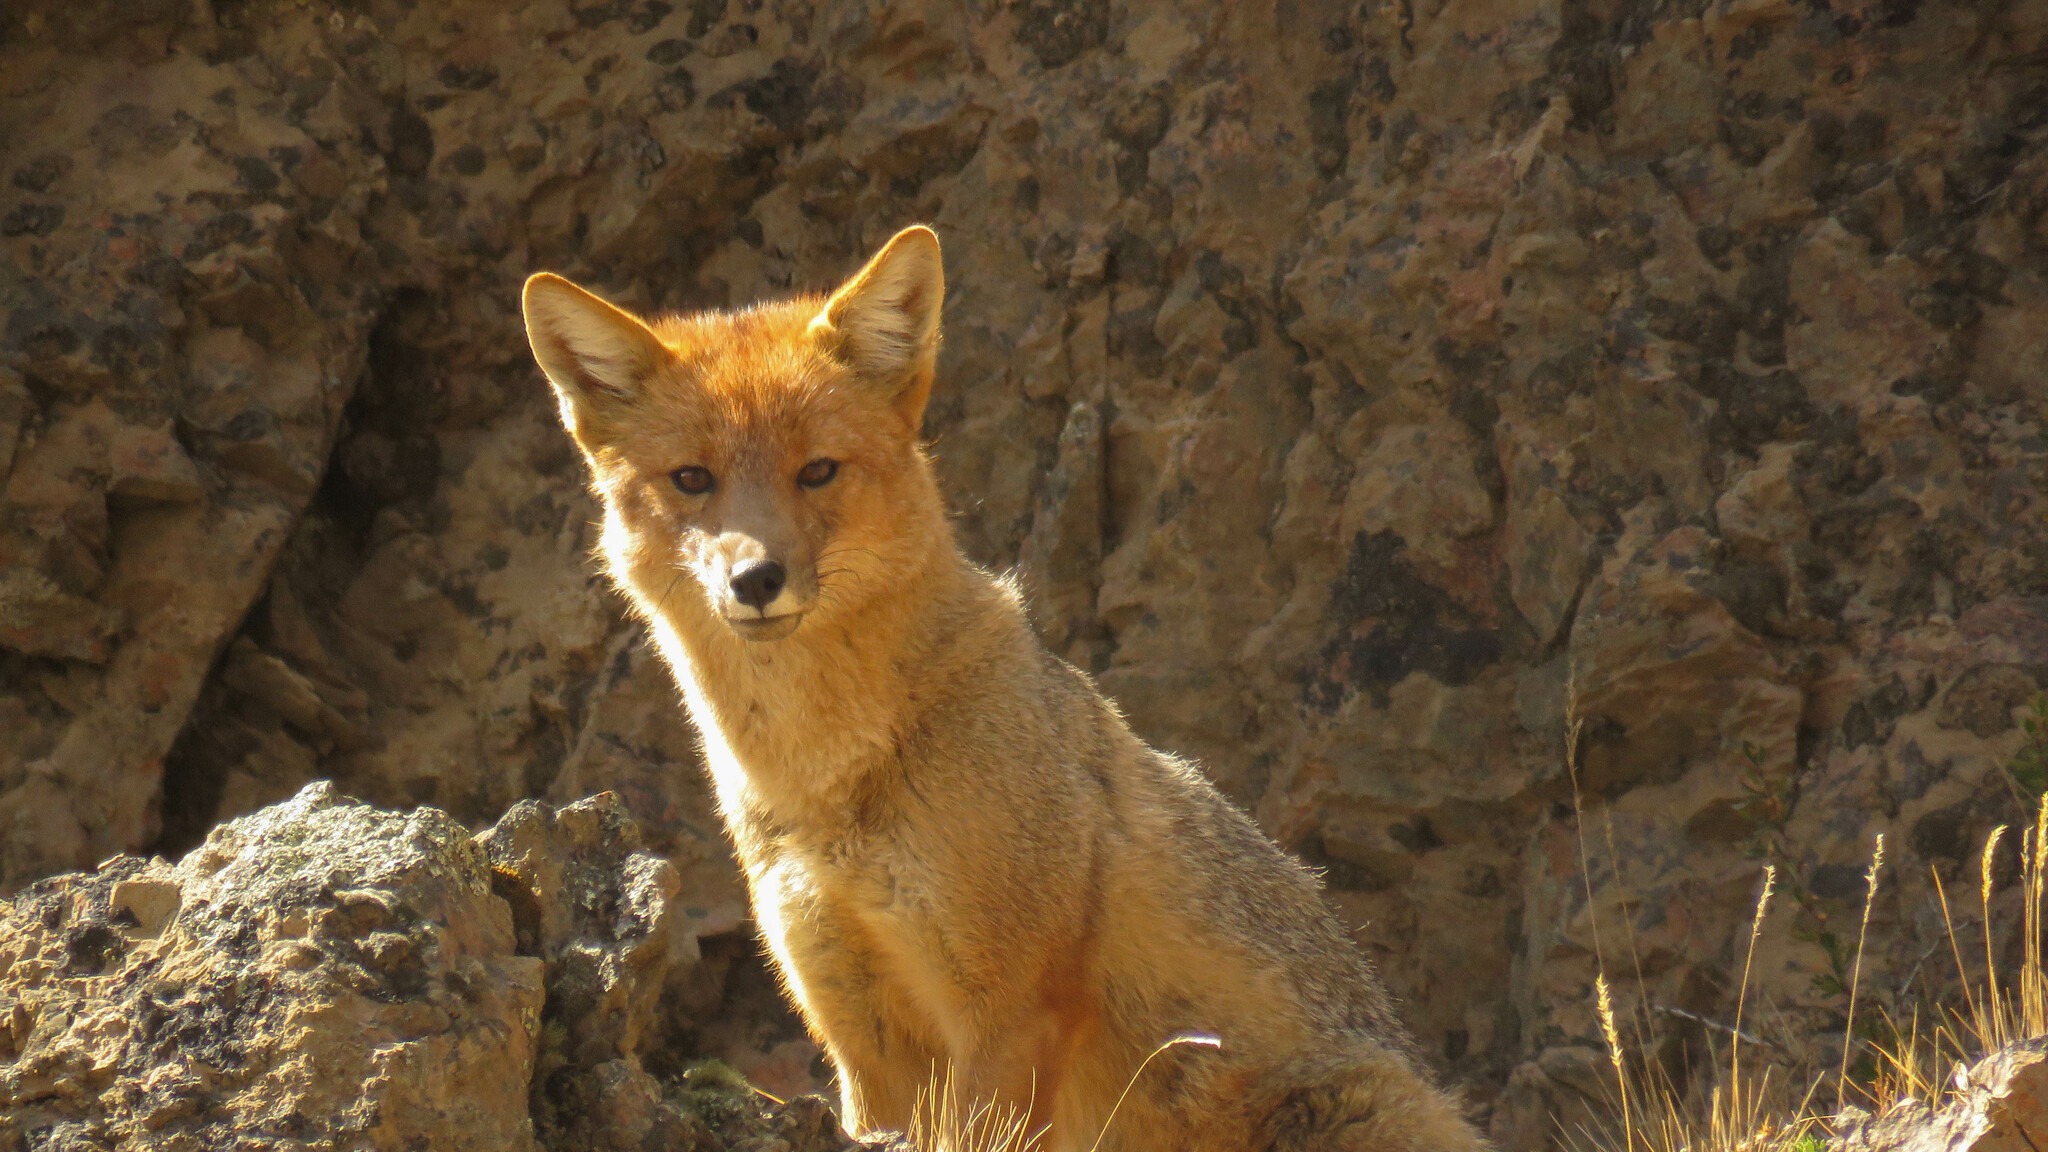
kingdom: Animalia
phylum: Chordata
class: Mammalia
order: Carnivora
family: Canidae
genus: Lycalopex
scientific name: Lycalopex culpaeus
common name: Culpeo
